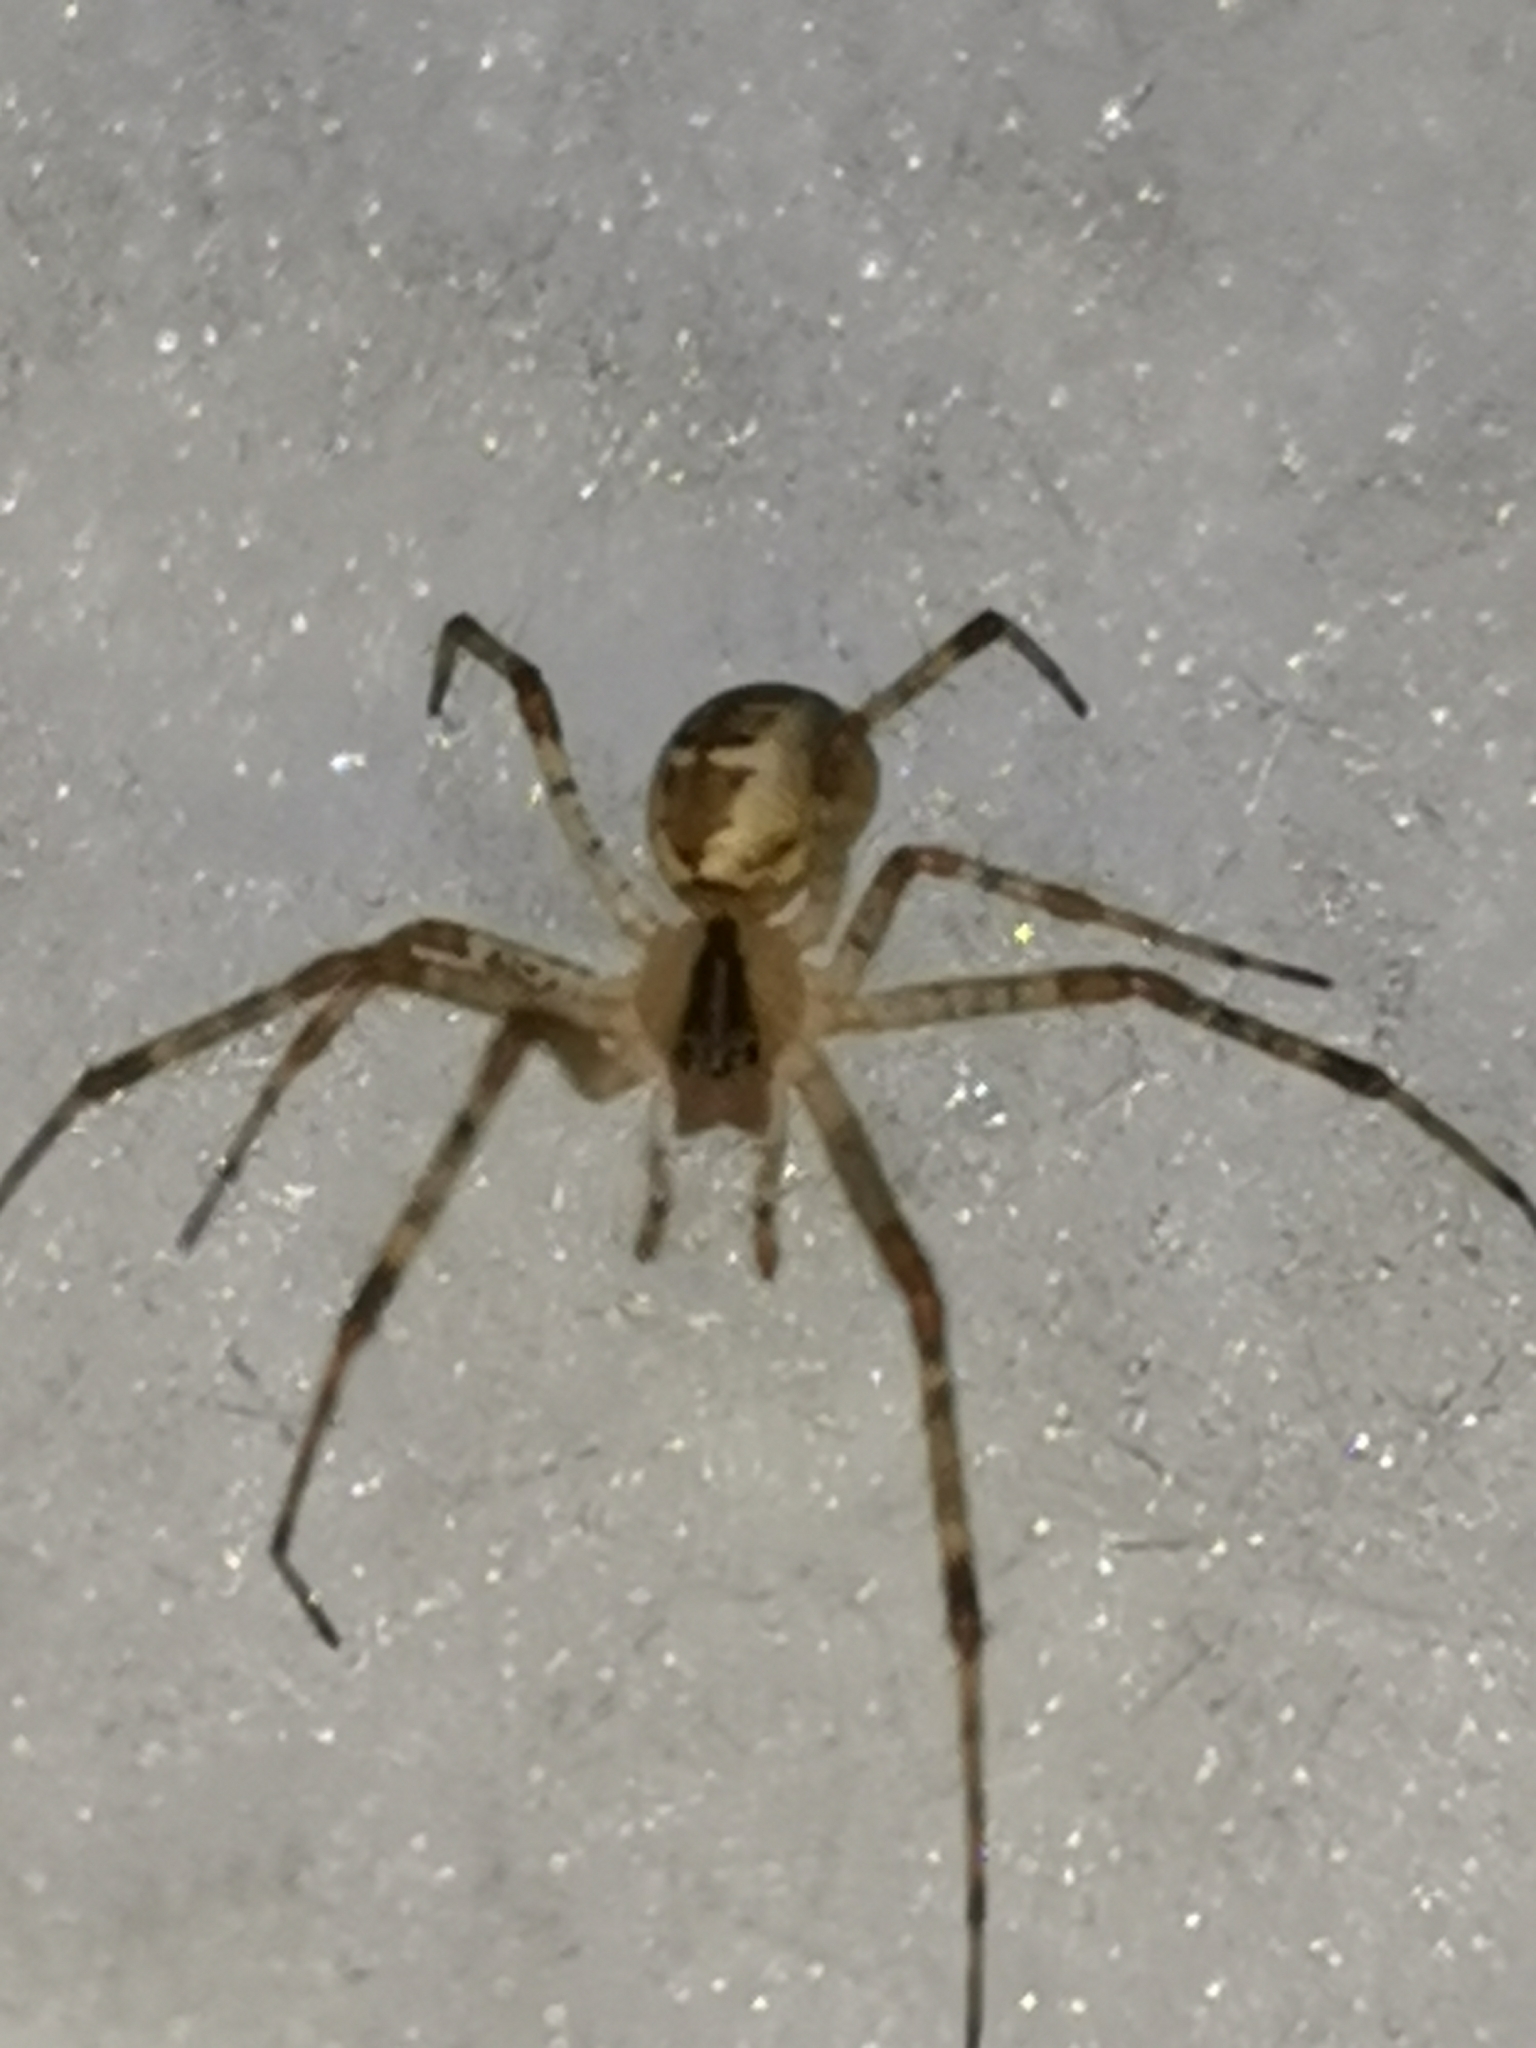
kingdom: Animalia
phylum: Arthropoda
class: Arachnida
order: Araneae
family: Linyphiidae
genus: Pityohyphantes
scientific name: Pityohyphantes phrygianus
